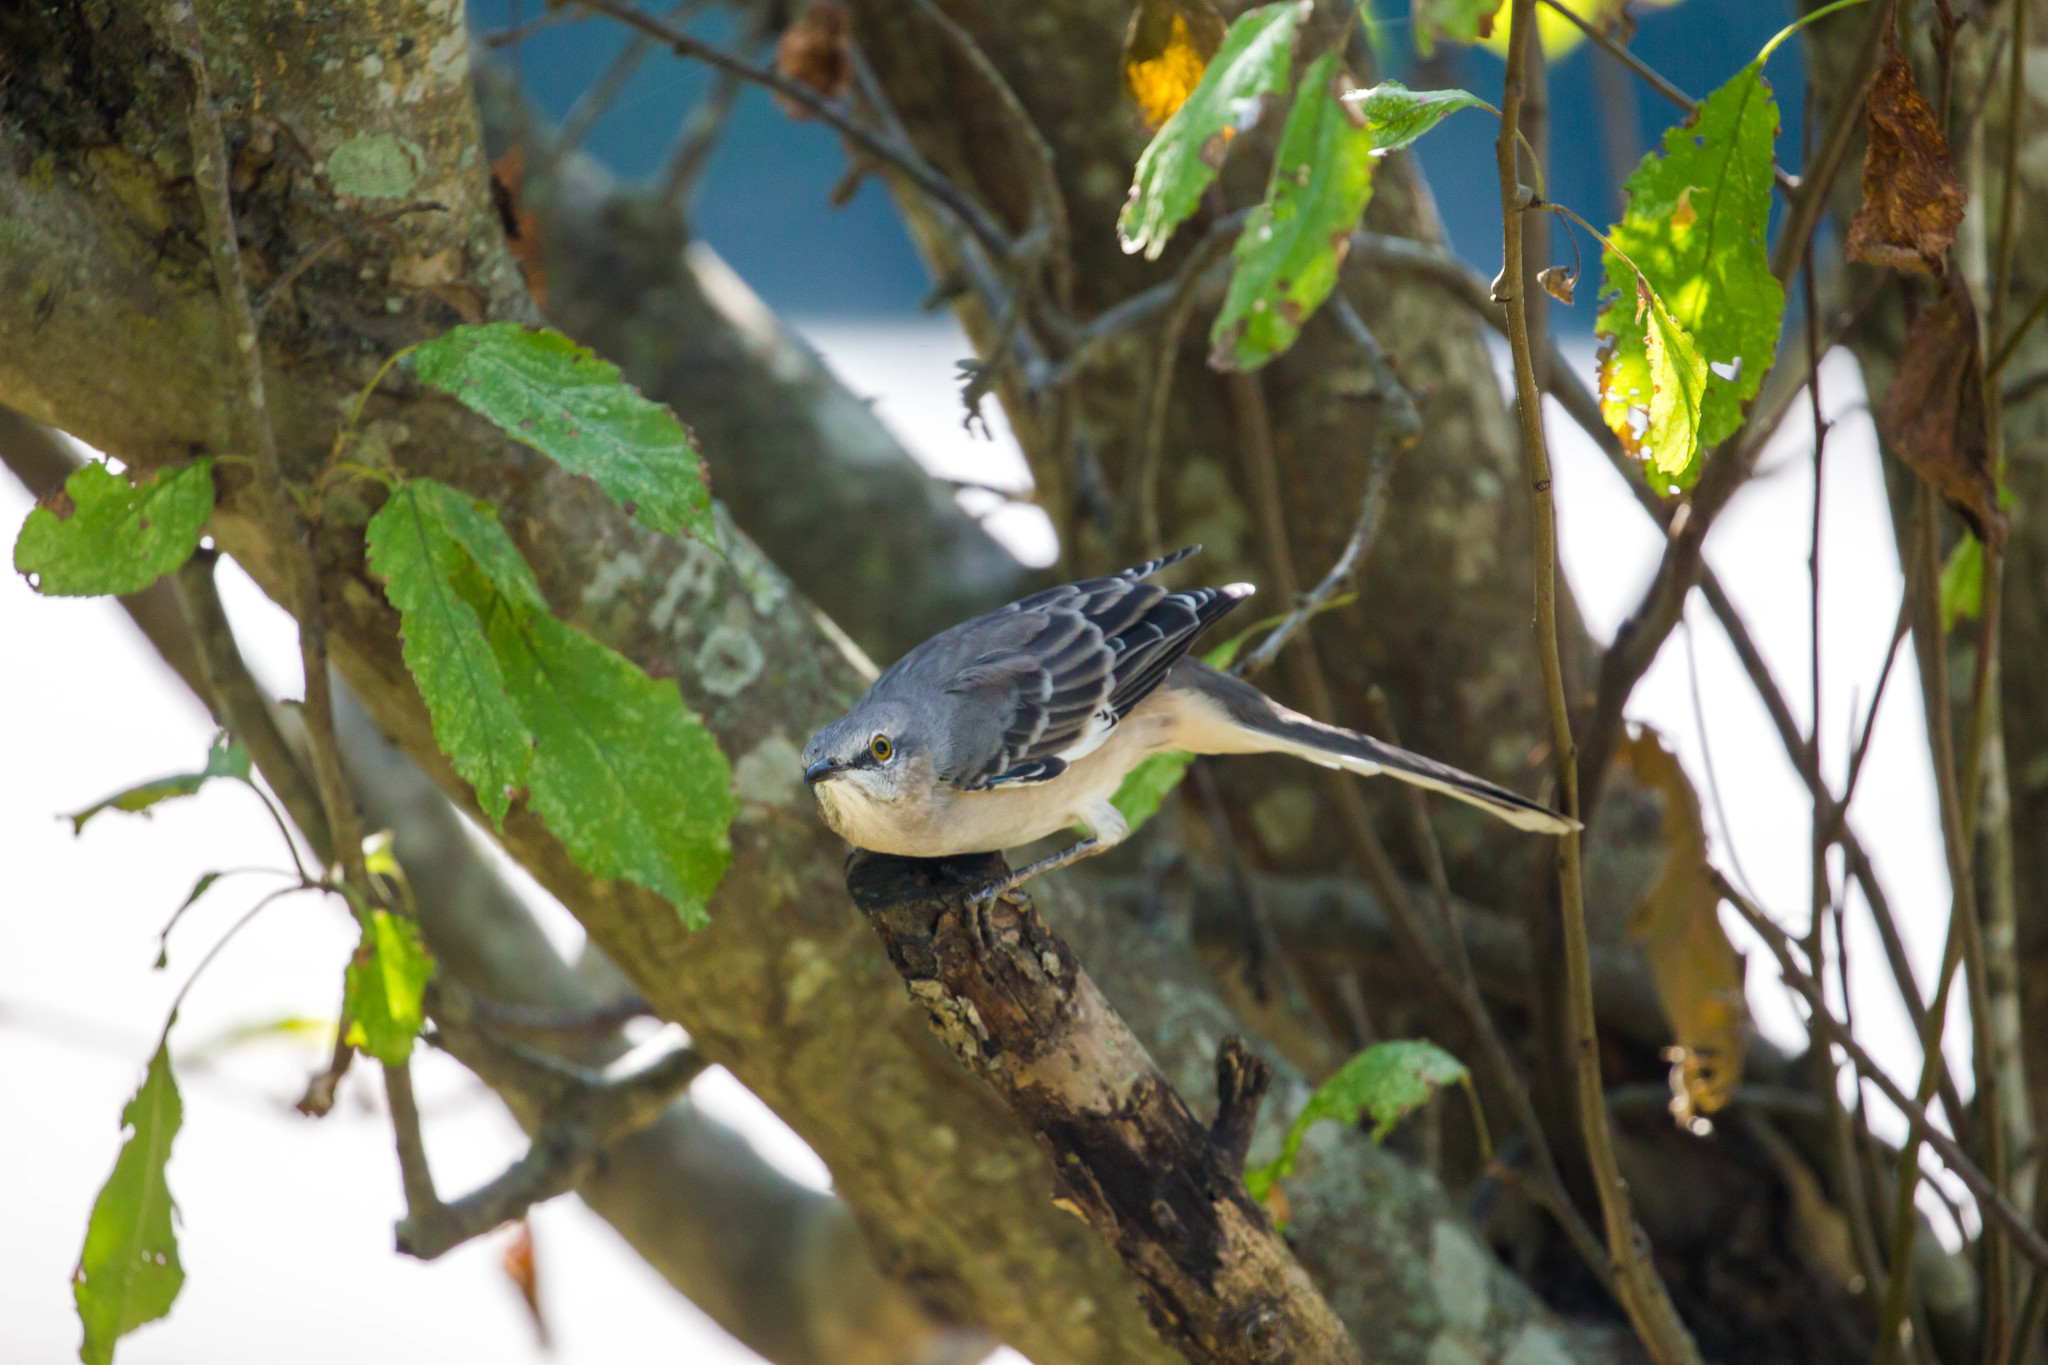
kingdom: Animalia
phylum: Chordata
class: Aves
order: Passeriformes
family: Mimidae
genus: Mimus
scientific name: Mimus polyglottos
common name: Northern mockingbird
